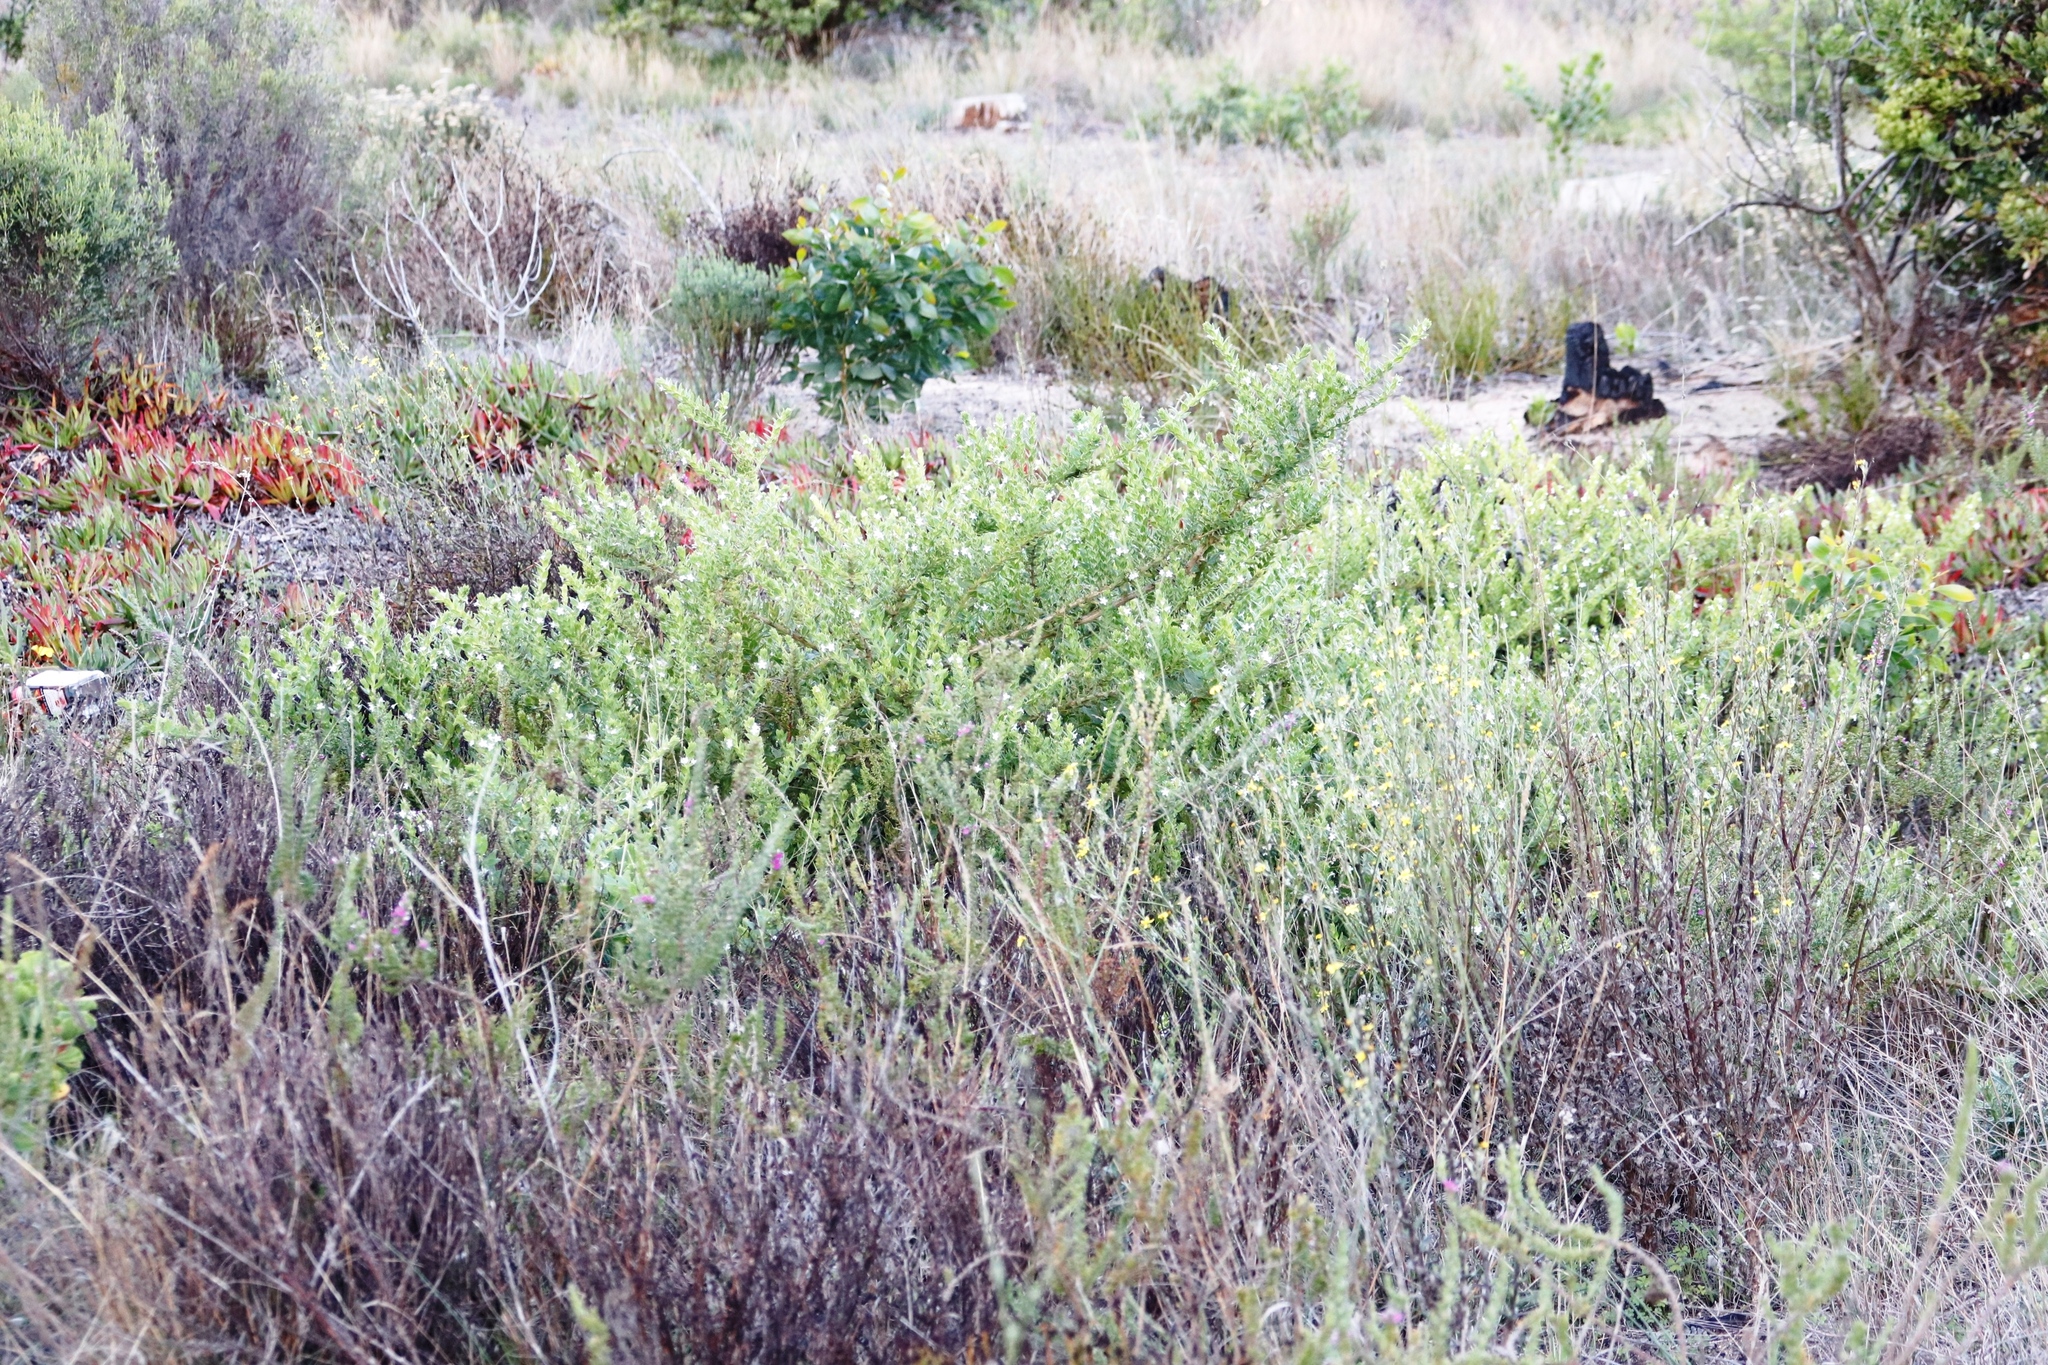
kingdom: Plantae
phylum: Tracheophyta
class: Magnoliopsida
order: Lamiales
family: Scrophulariaceae
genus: Oftia
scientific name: Oftia africana
